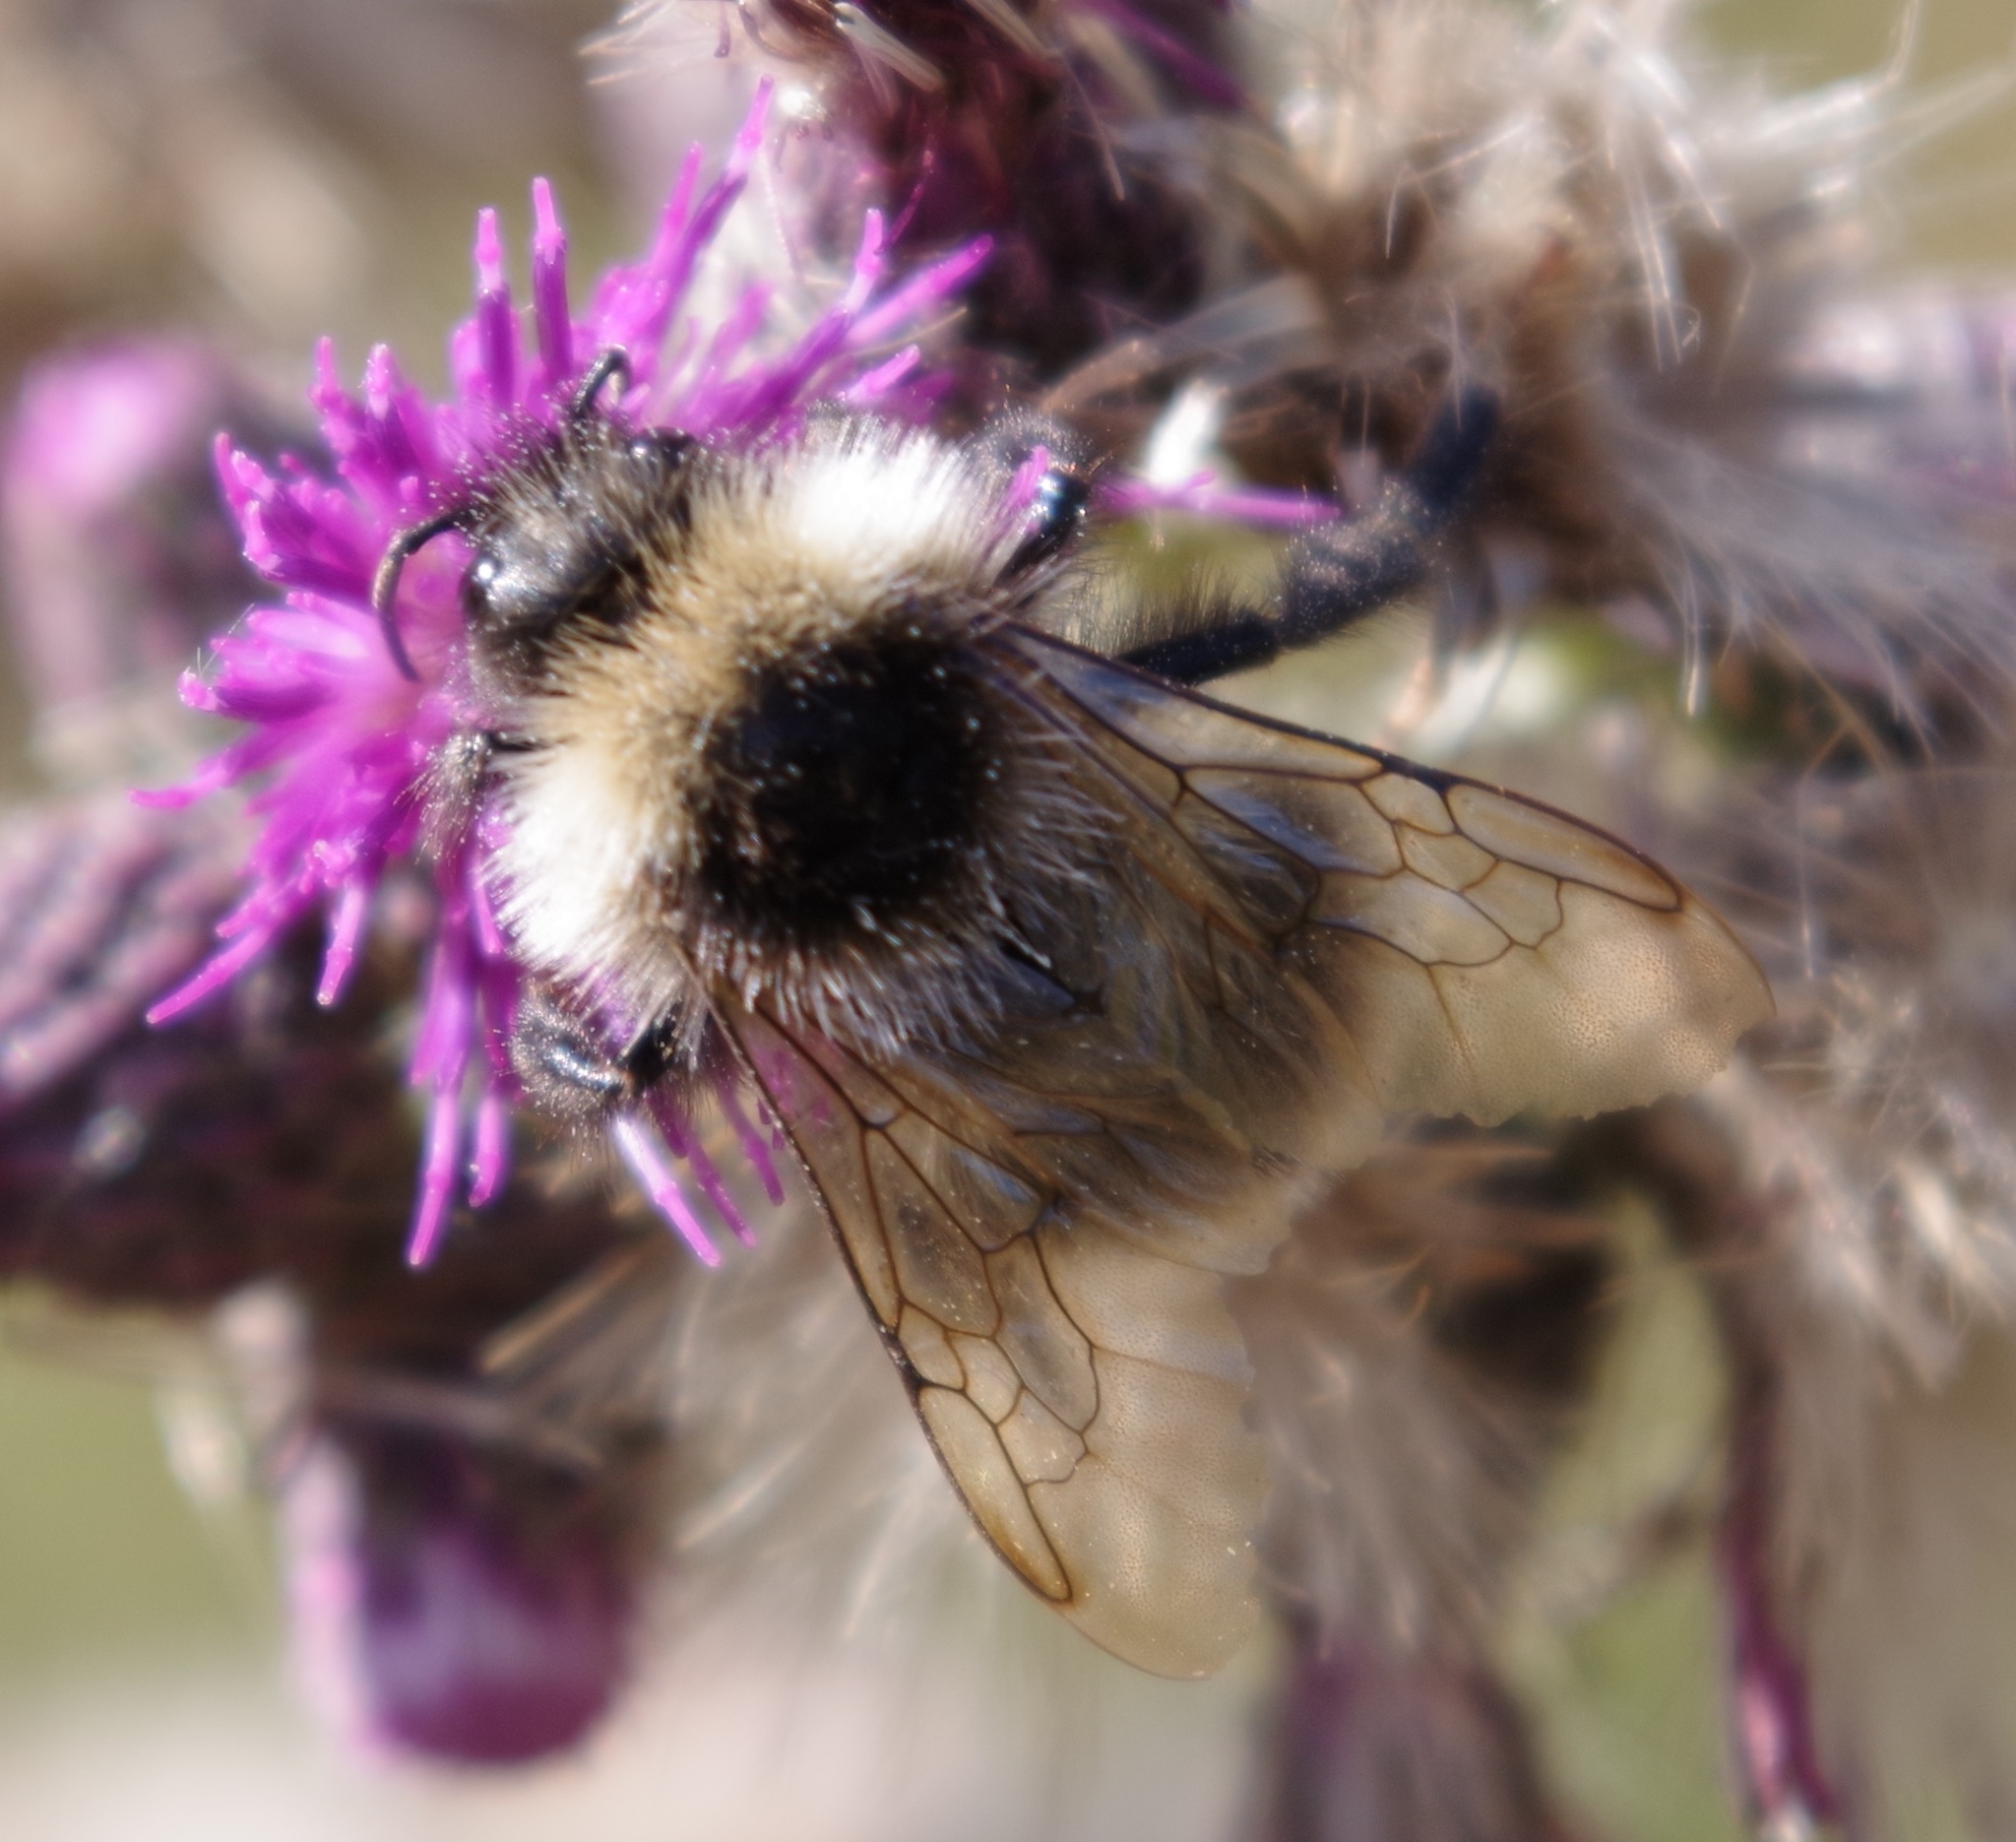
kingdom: Animalia
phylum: Arthropoda
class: Insecta
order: Hymenoptera
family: Apidae
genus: Bombus
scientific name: Bombus
